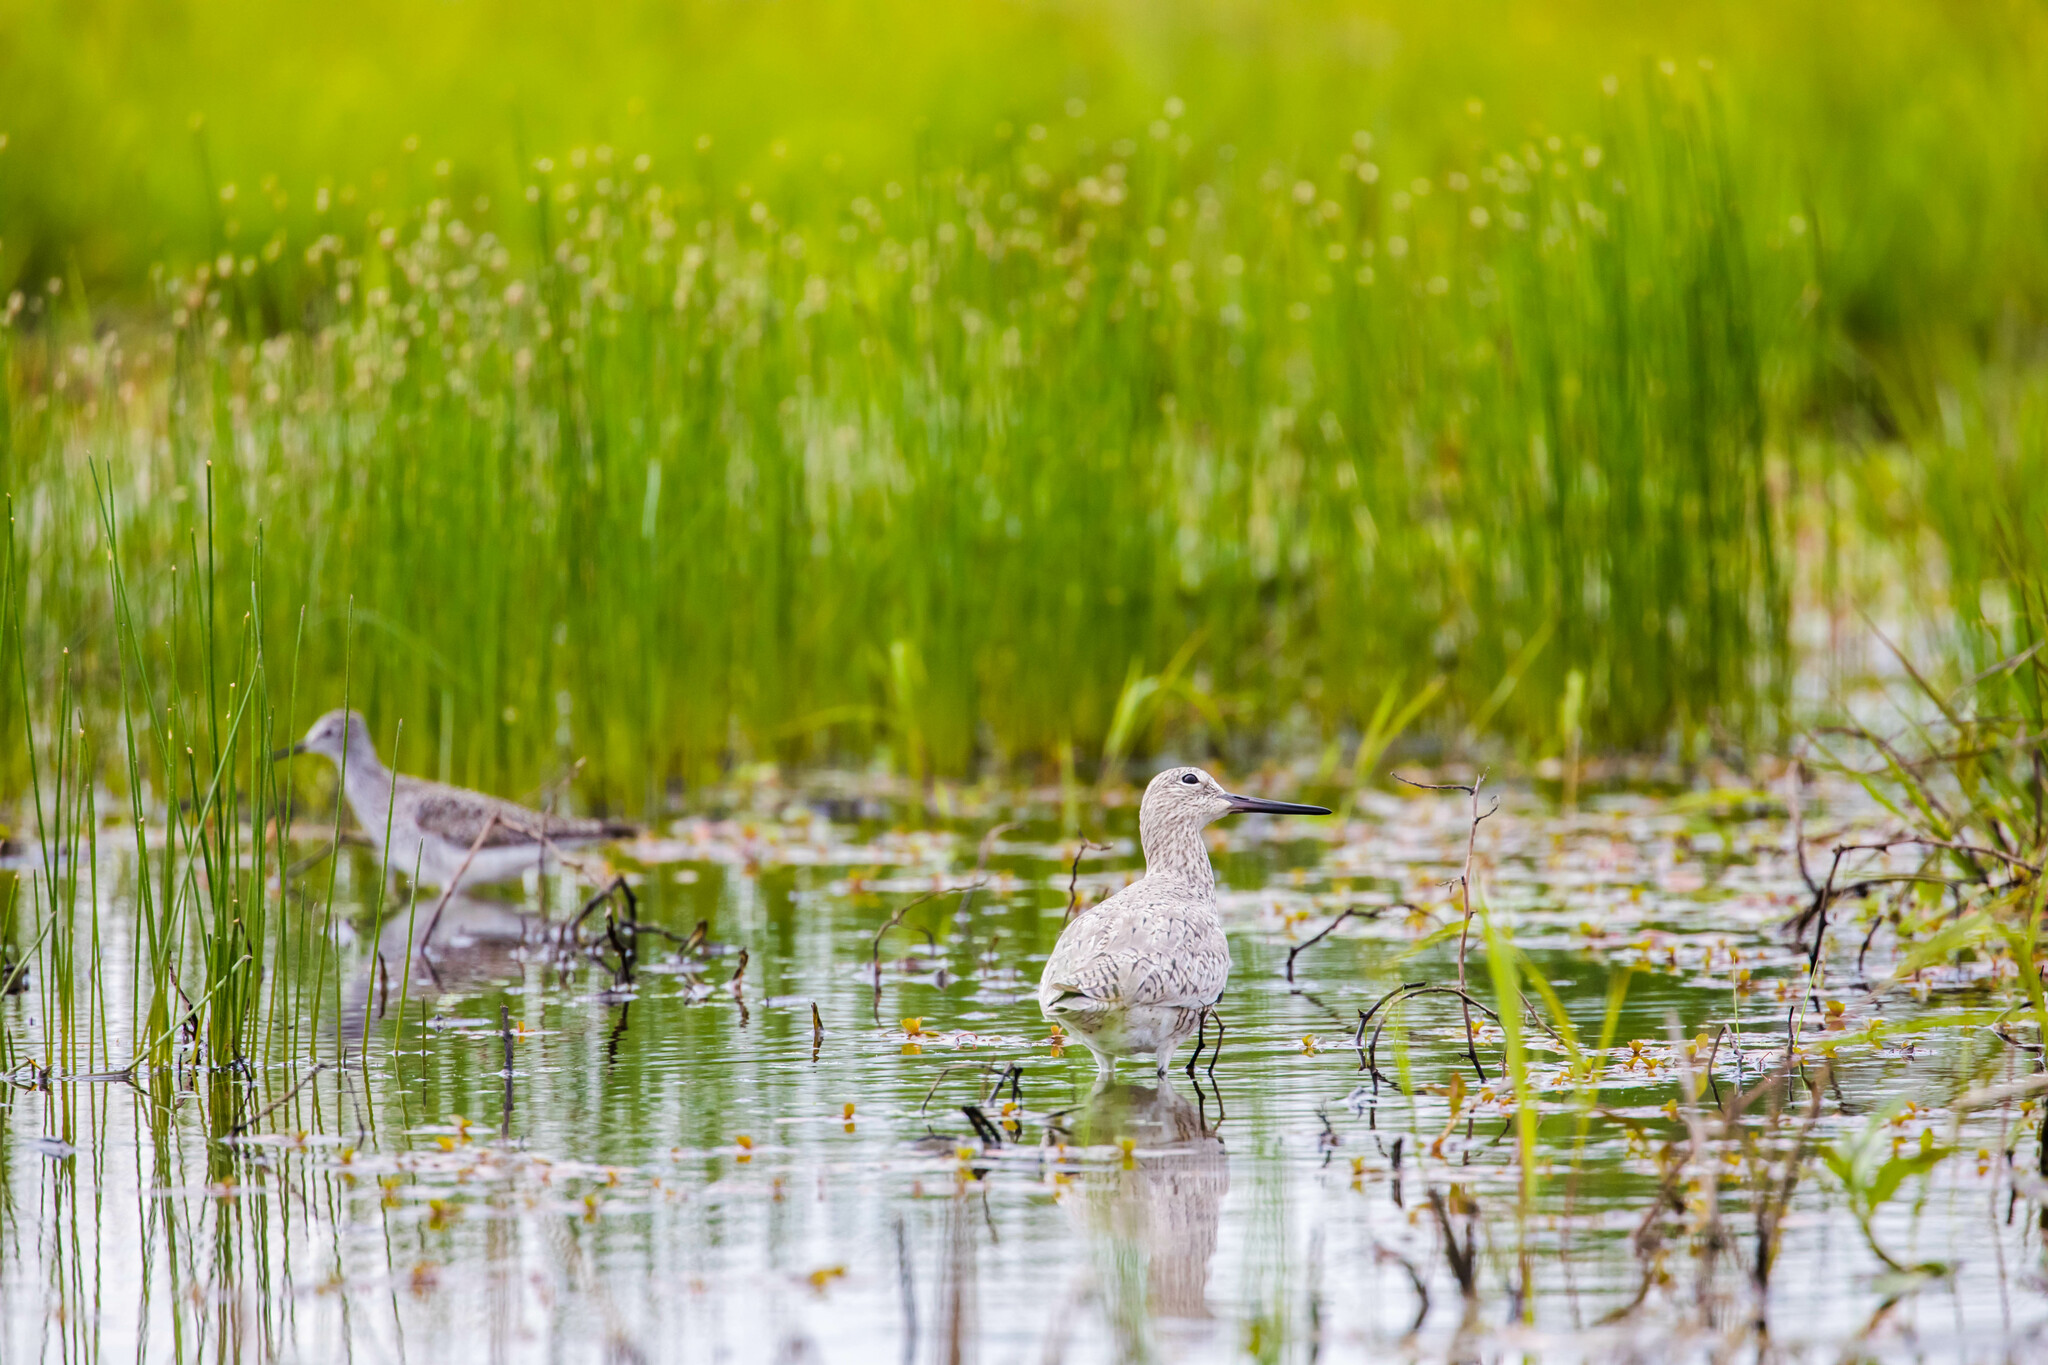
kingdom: Animalia
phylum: Chordata
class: Aves
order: Charadriiformes
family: Scolopacidae
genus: Tringa
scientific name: Tringa semipalmata
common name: Willet
